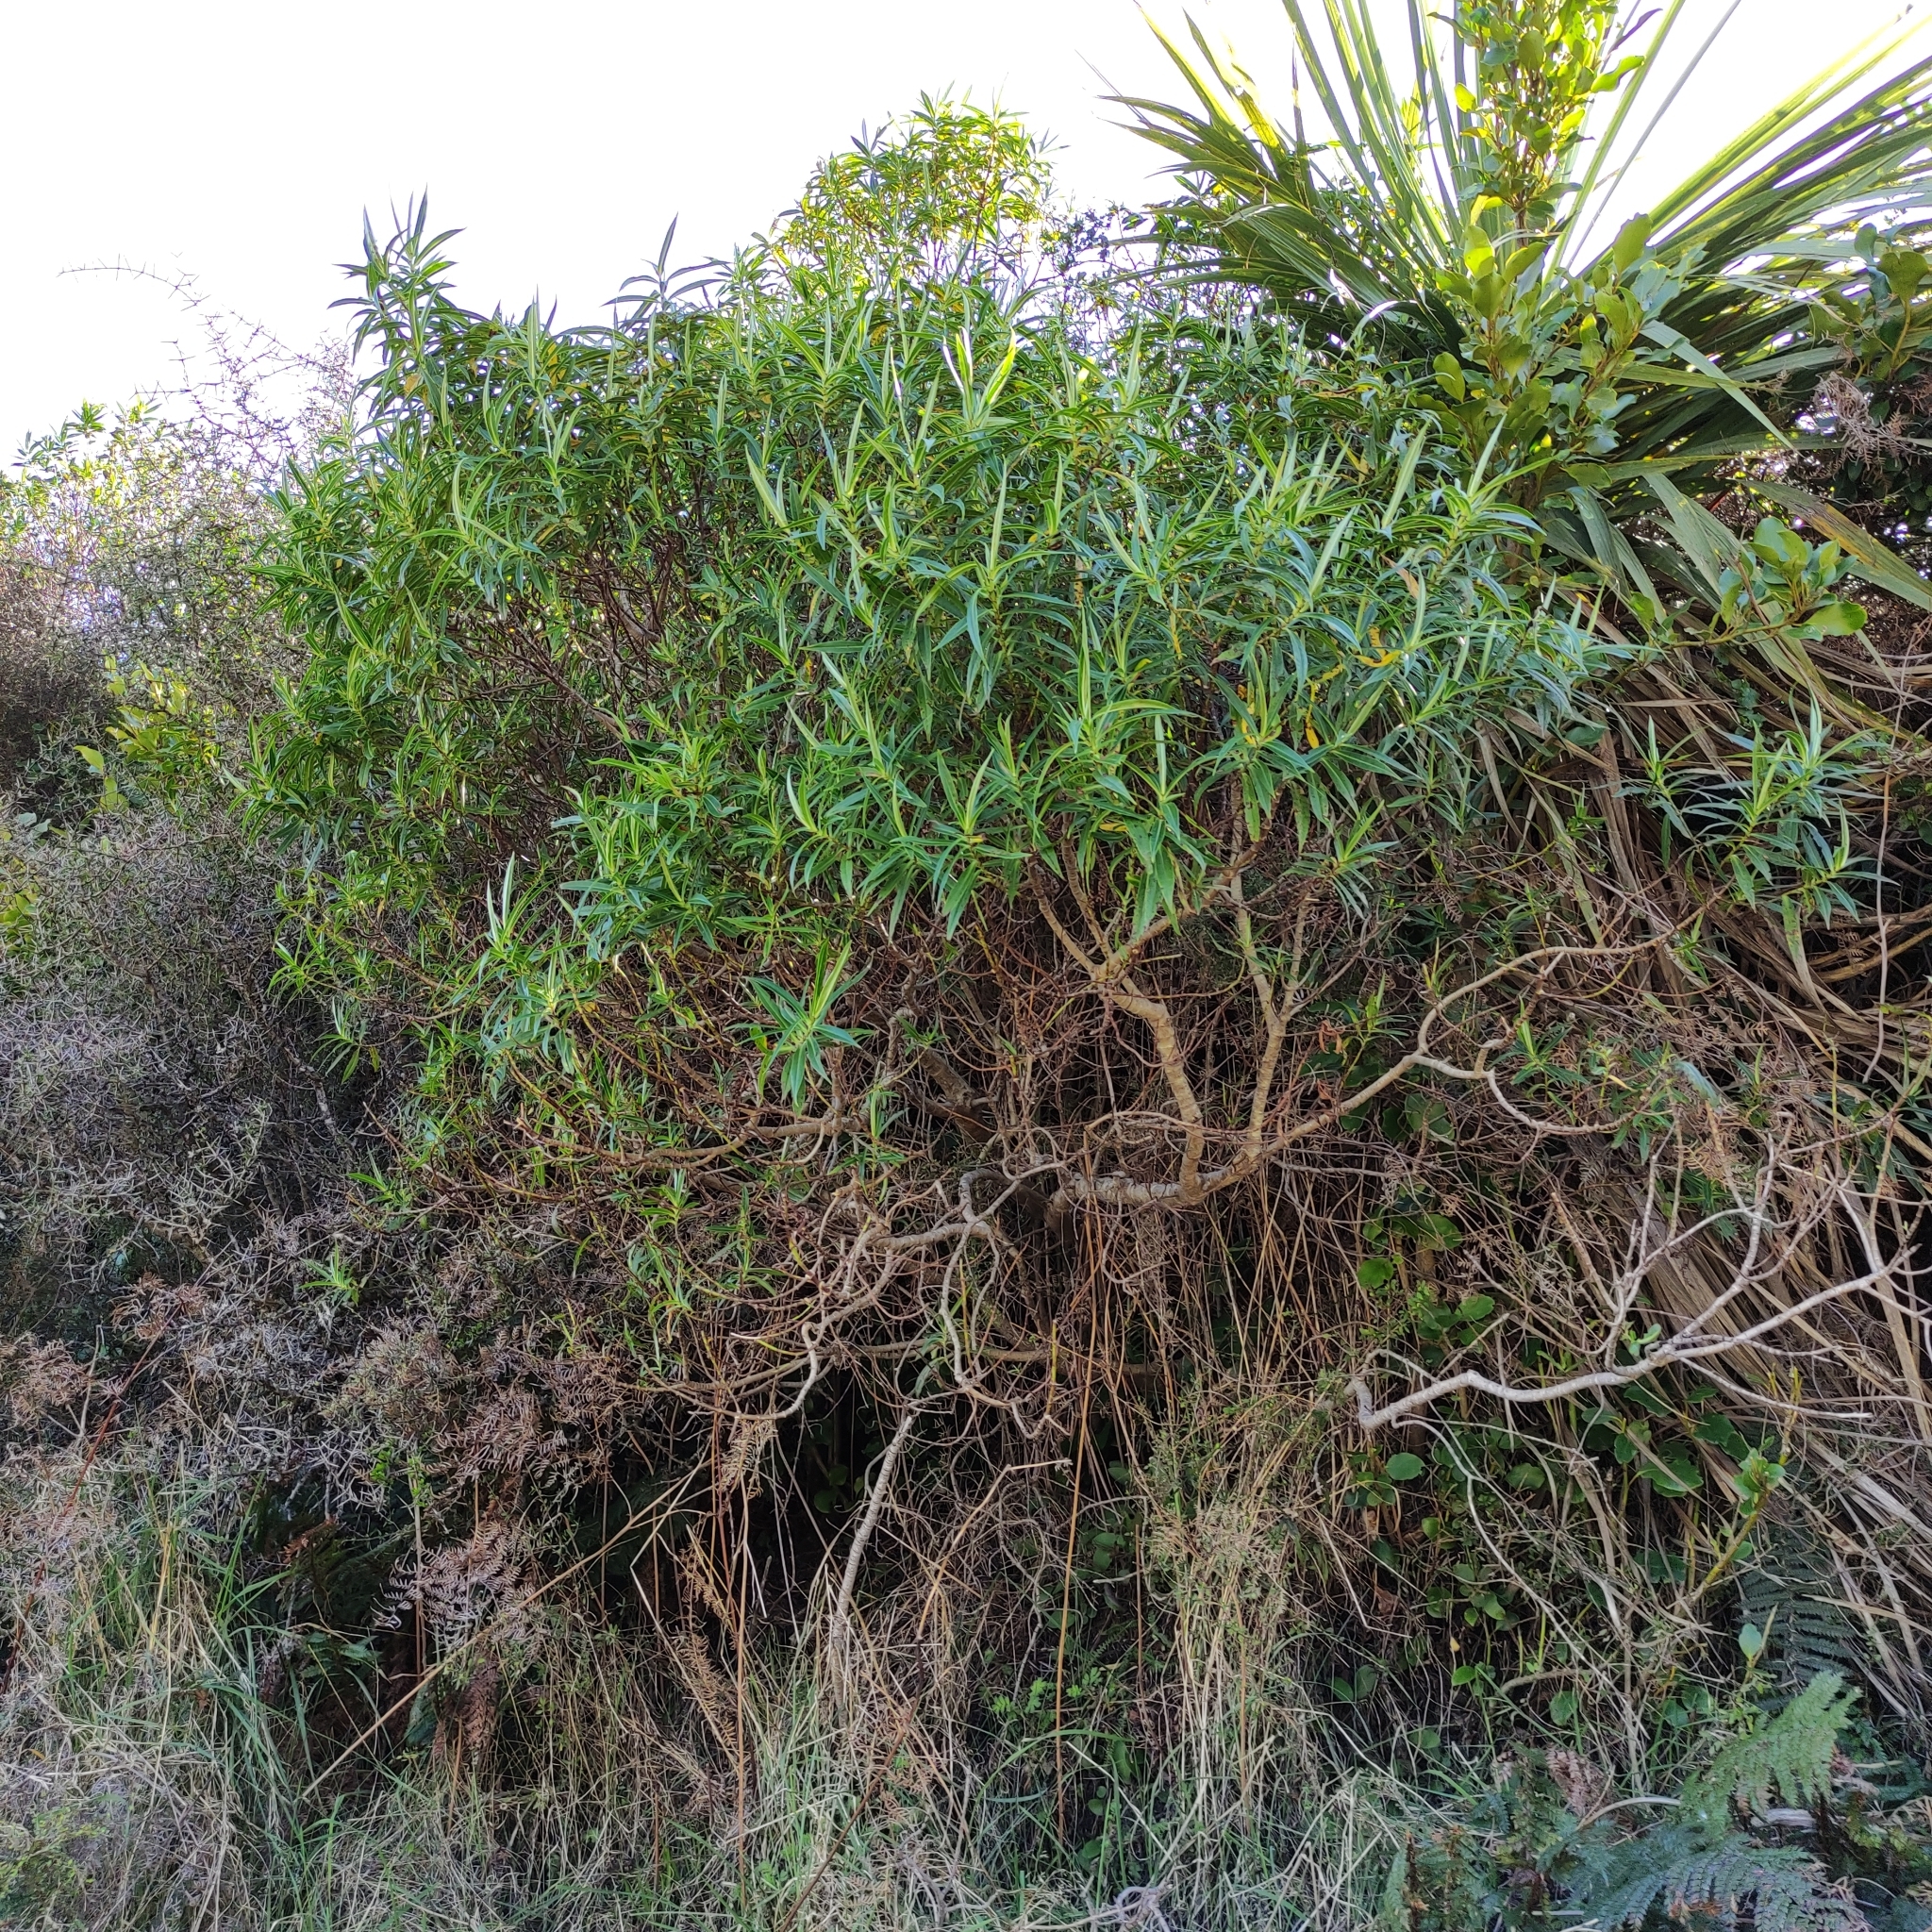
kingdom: Plantae
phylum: Tracheophyta
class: Magnoliopsida
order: Lamiales
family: Plantaginaceae
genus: Veronica
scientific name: Veronica salicifolia
